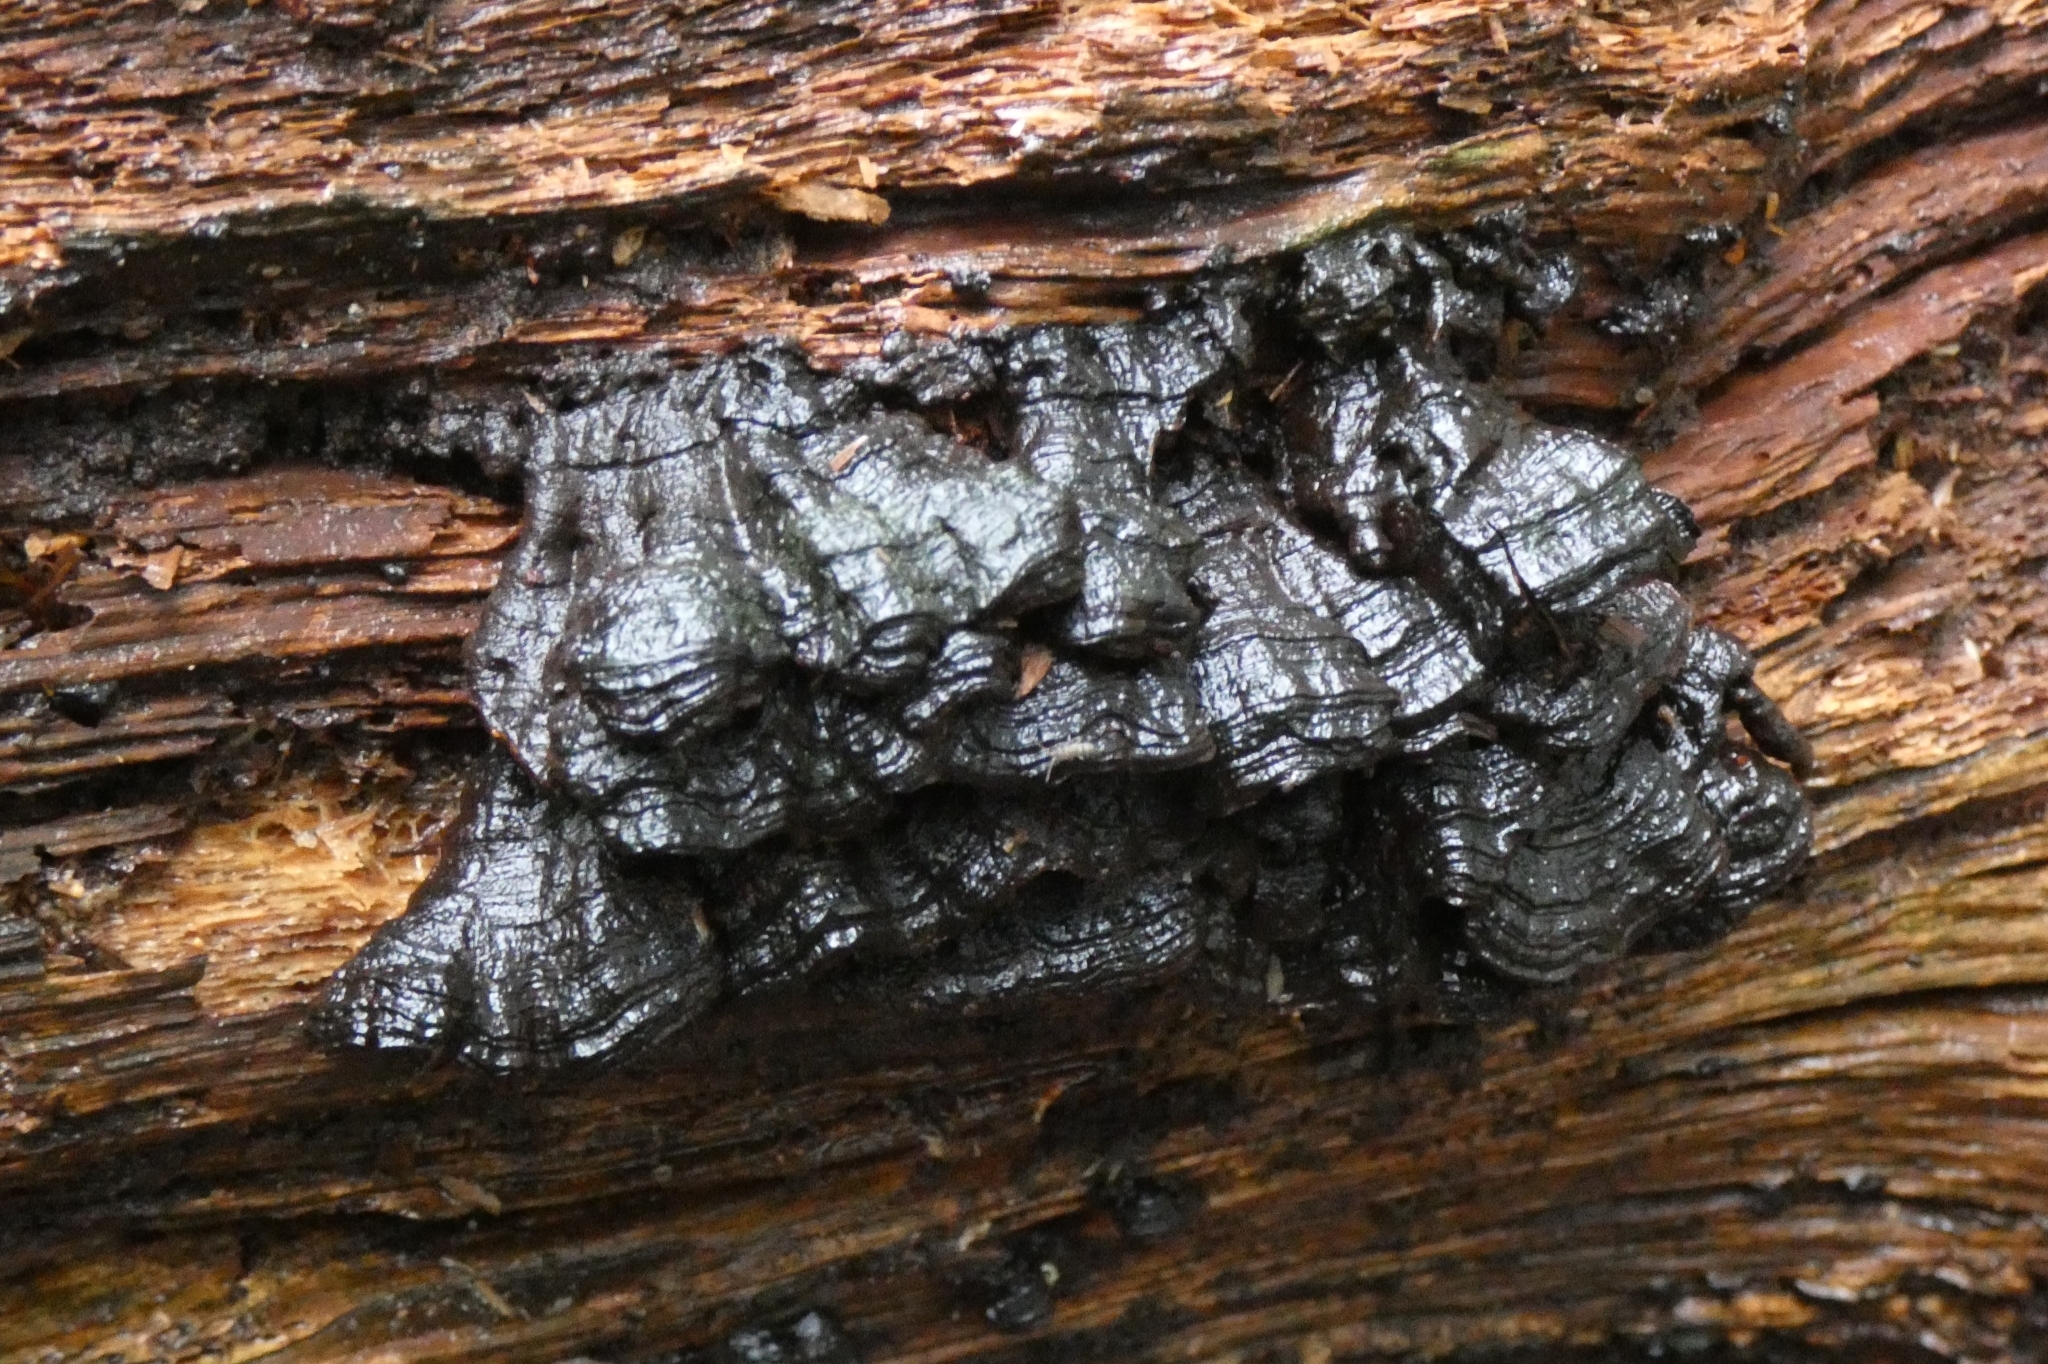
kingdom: Fungi
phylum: Basidiomycota
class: Agaricomycetes
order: Hymenochaetales
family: Hymenochaetaceae
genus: Hymenochaete
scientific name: Hymenochaete rubiginosa
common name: Oak curtain crust
